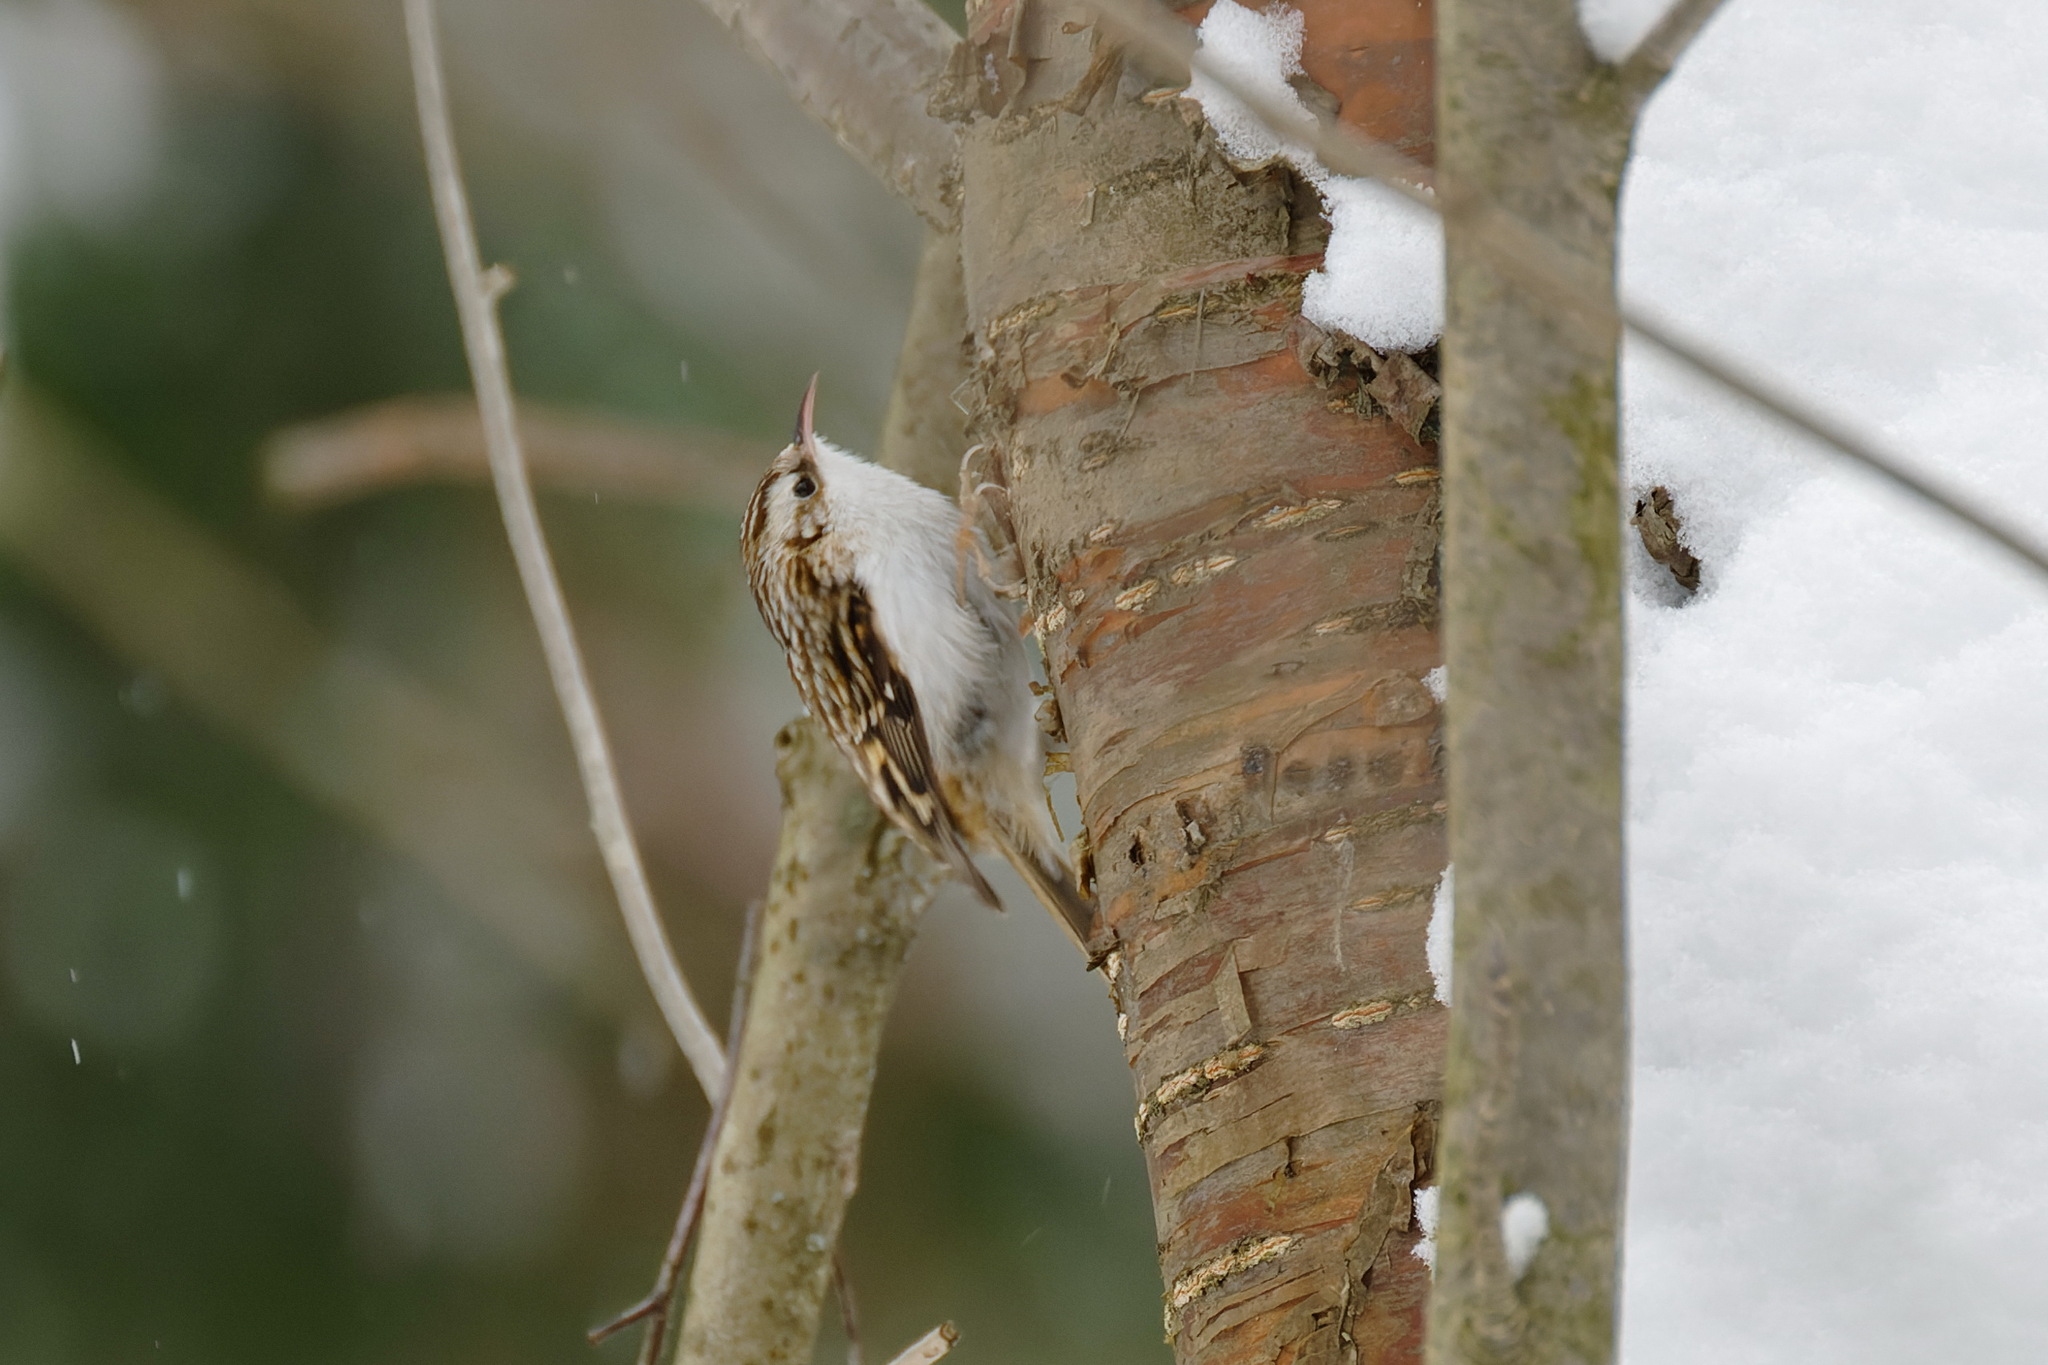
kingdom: Animalia
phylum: Chordata
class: Aves
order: Passeriformes
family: Certhiidae
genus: Certhia
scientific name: Certhia familiaris
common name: Eurasian treecreeper
